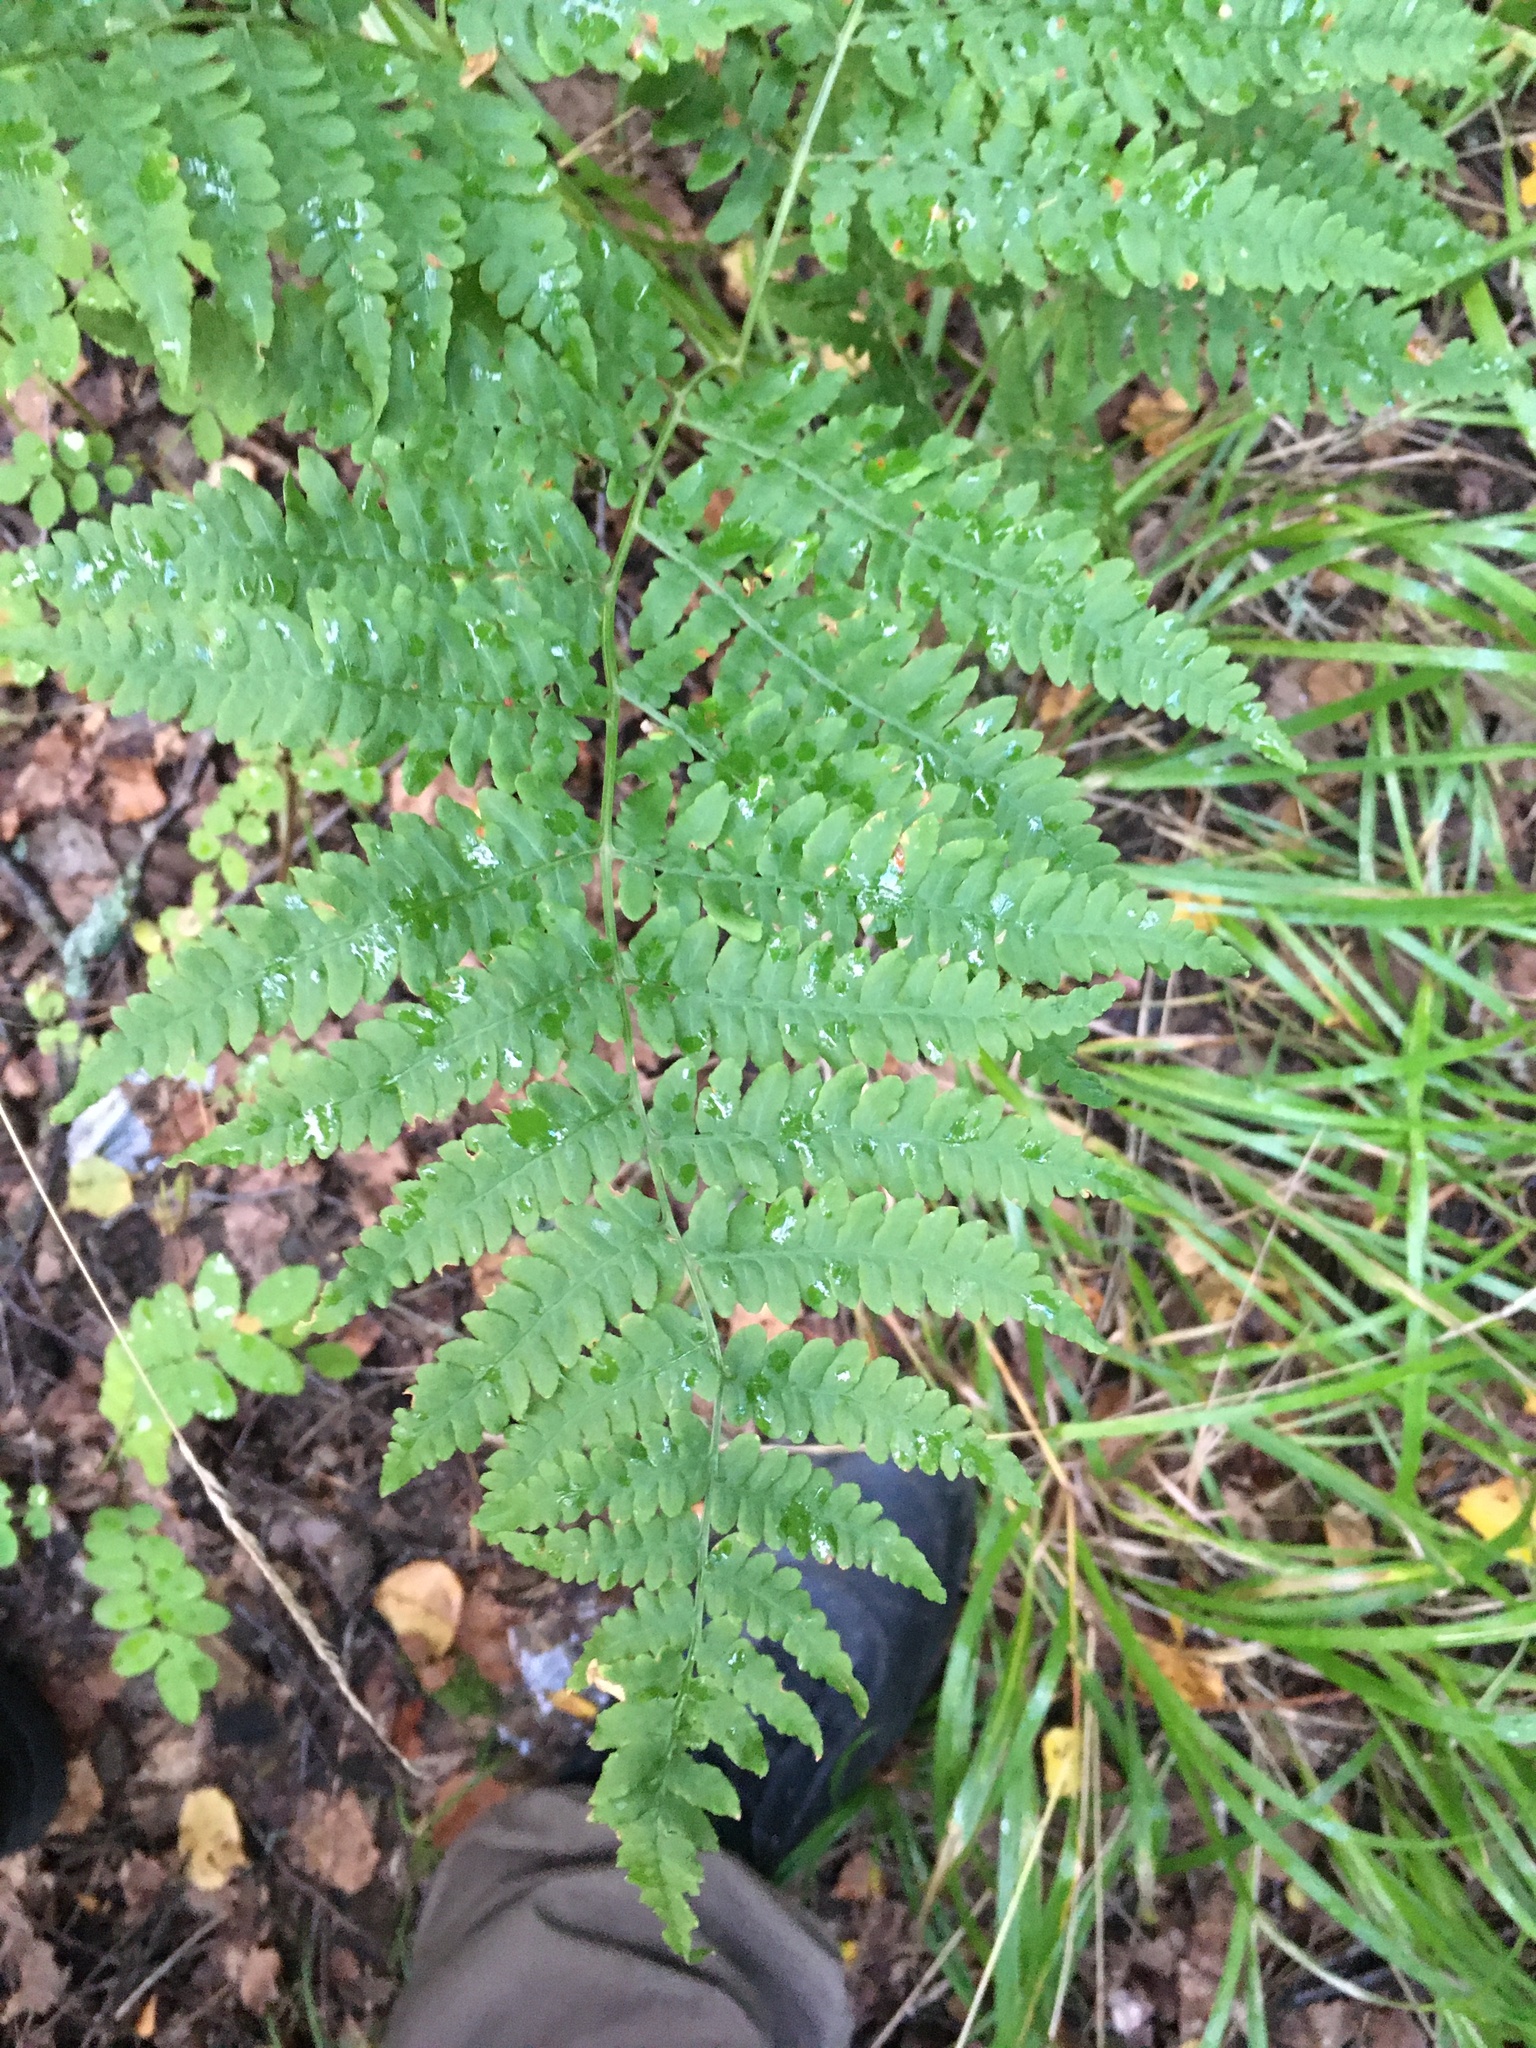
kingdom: Plantae
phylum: Tracheophyta
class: Polypodiopsida
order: Polypodiales
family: Dennstaedtiaceae
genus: Pteridium
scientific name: Pteridium aquilinum
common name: Bracken
